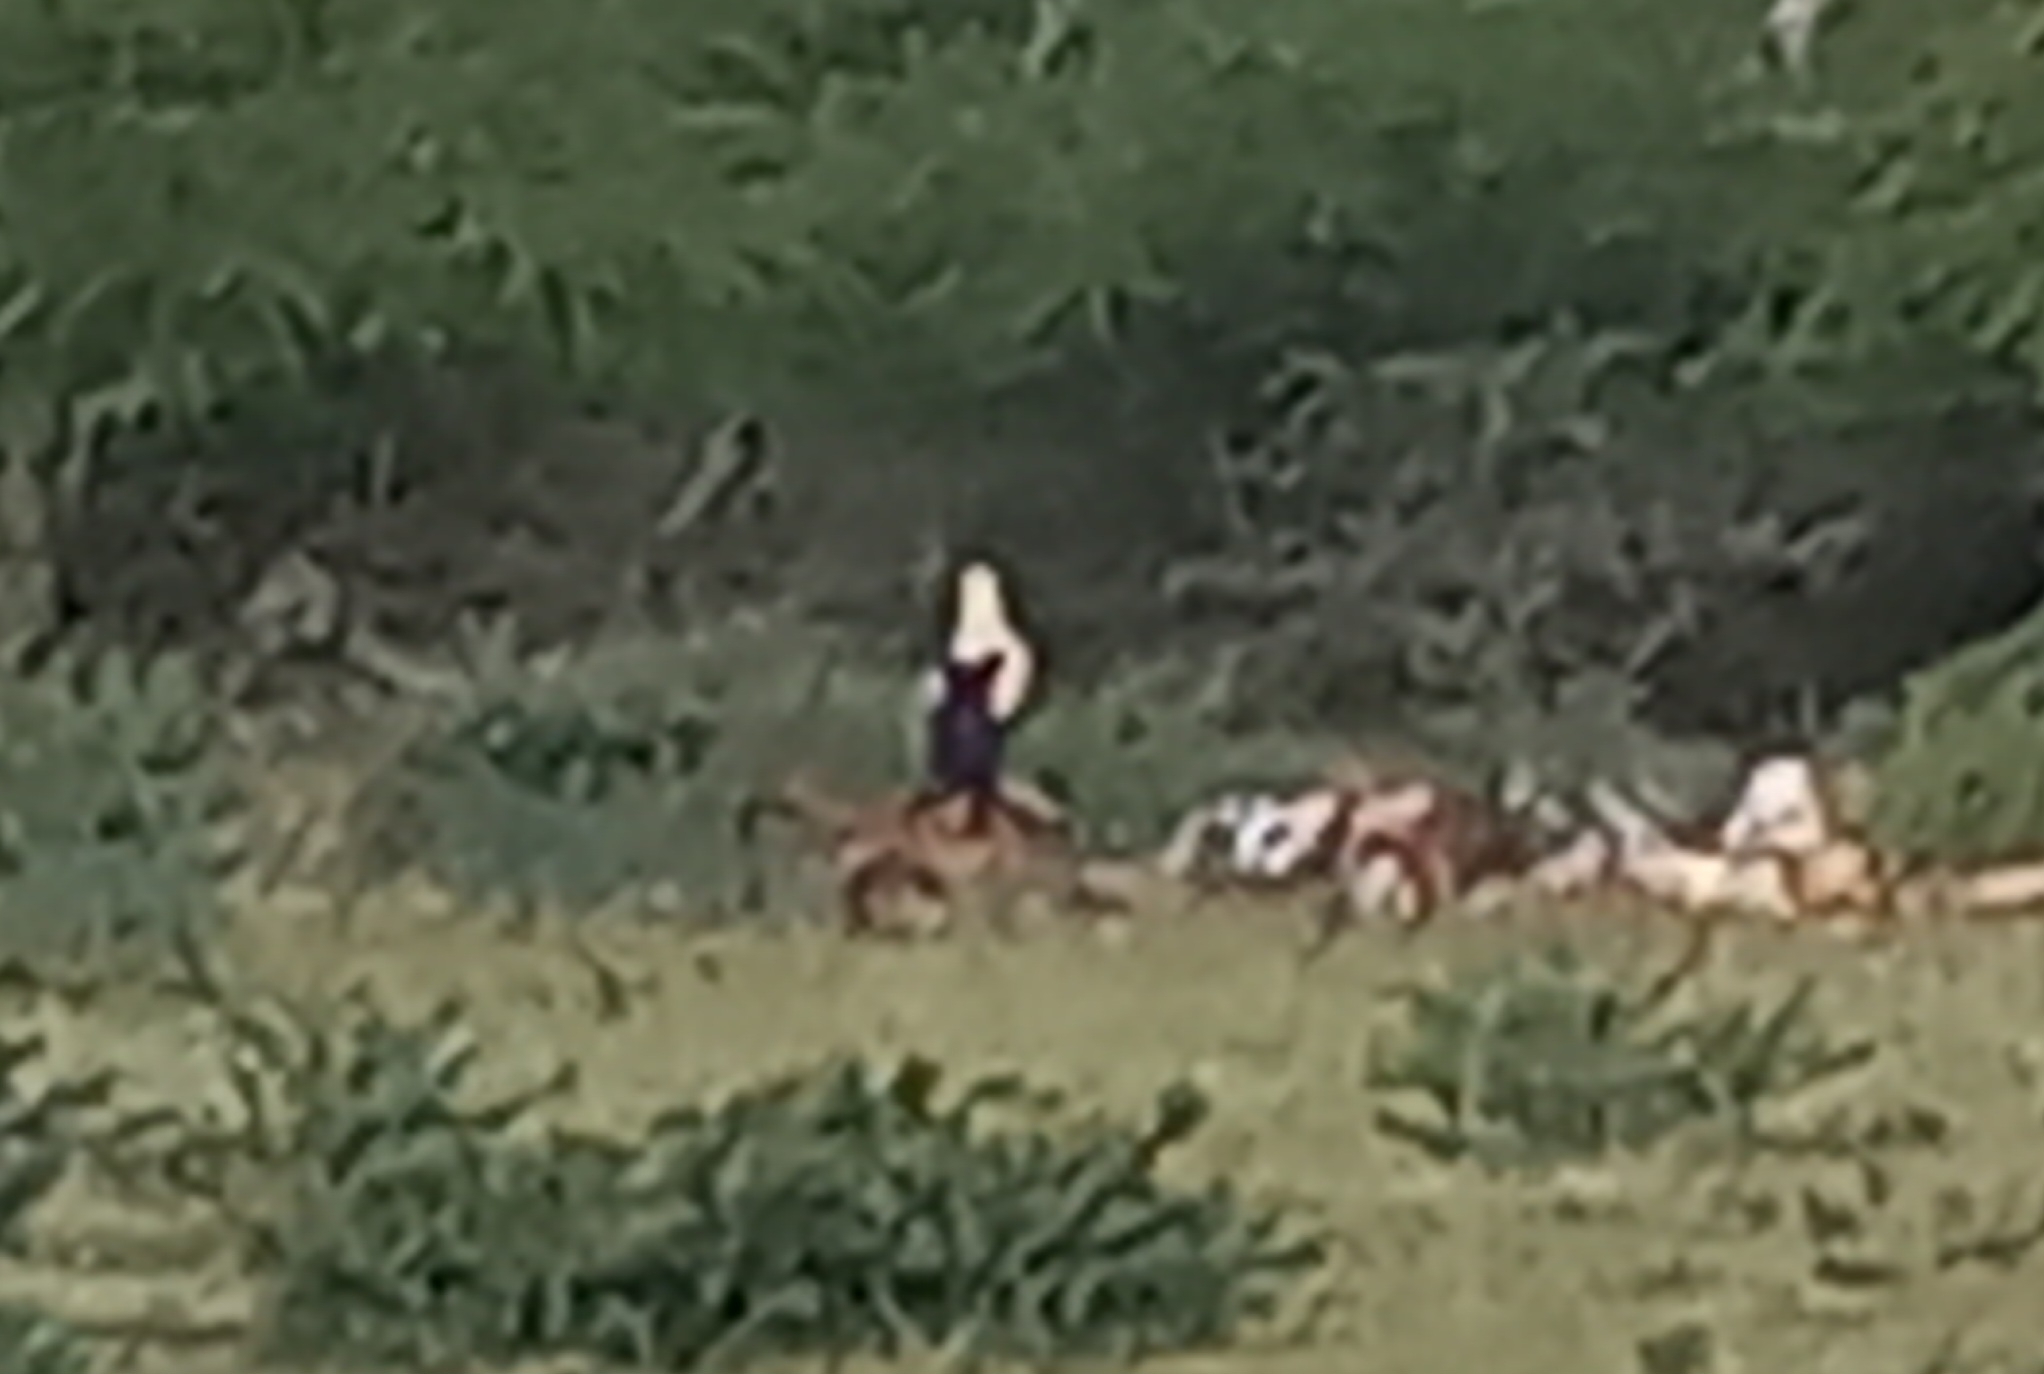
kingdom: Animalia
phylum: Chordata
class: Aves
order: Accipitriformes
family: Accipitridae
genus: Gypohierax
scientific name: Gypohierax angolensis
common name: Palm-nut vulture
